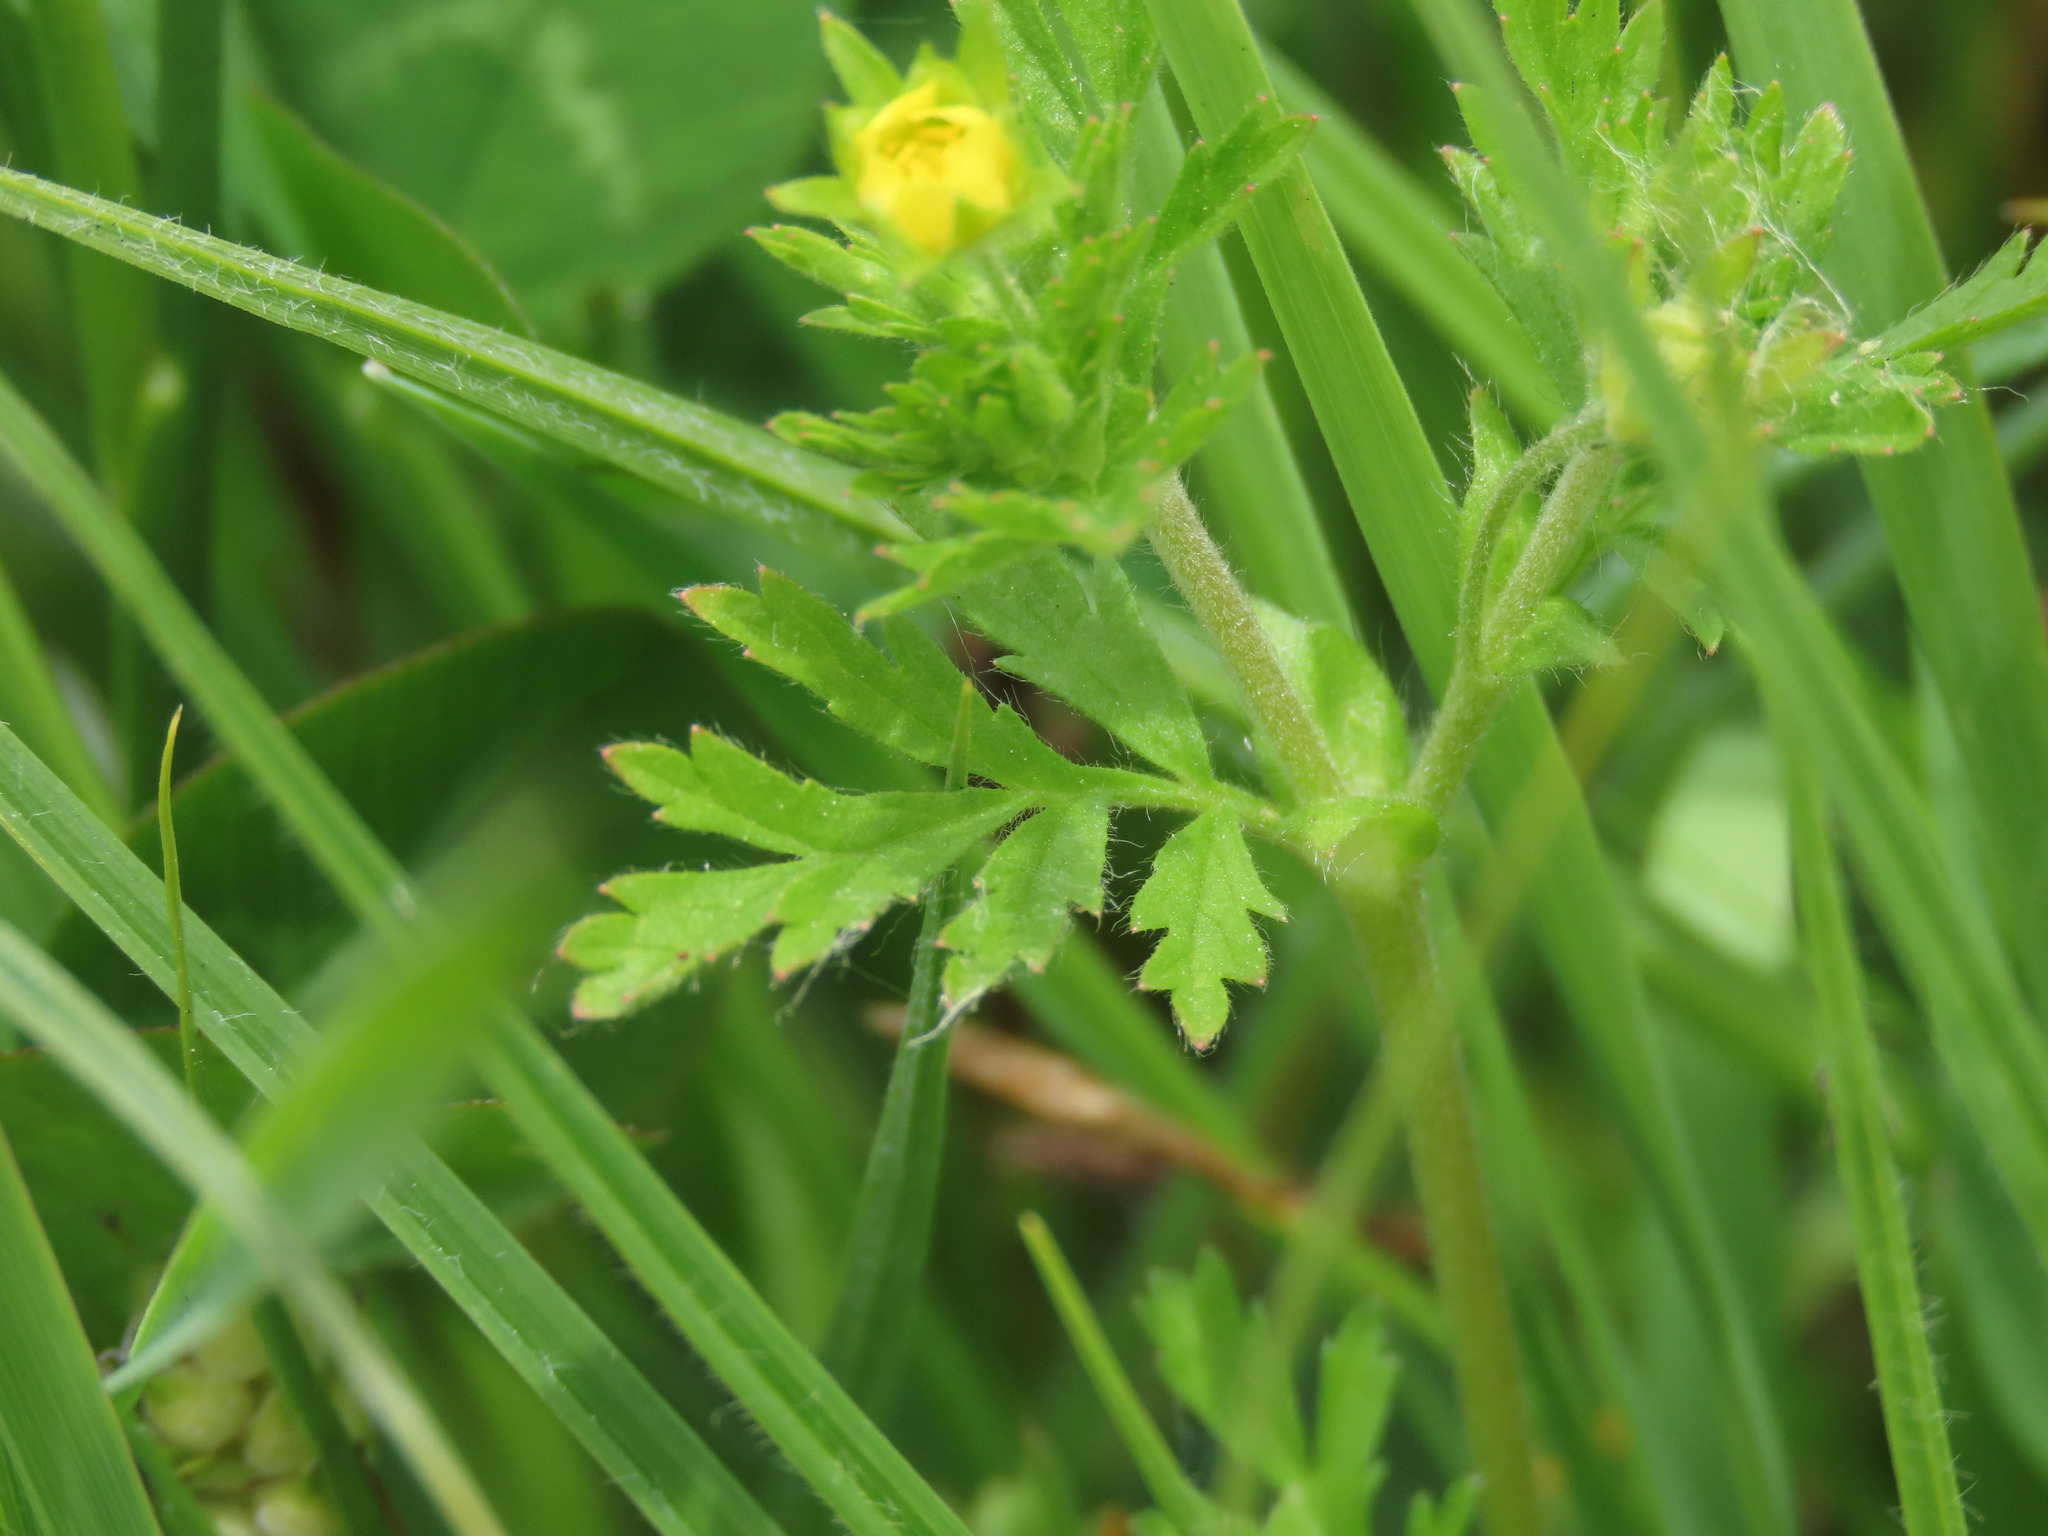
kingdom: Plantae
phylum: Tracheophyta
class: Magnoliopsida
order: Rosales
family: Rosaceae
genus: Potentilla
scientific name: Potentilla supina
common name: Prostrate cinquefoil
